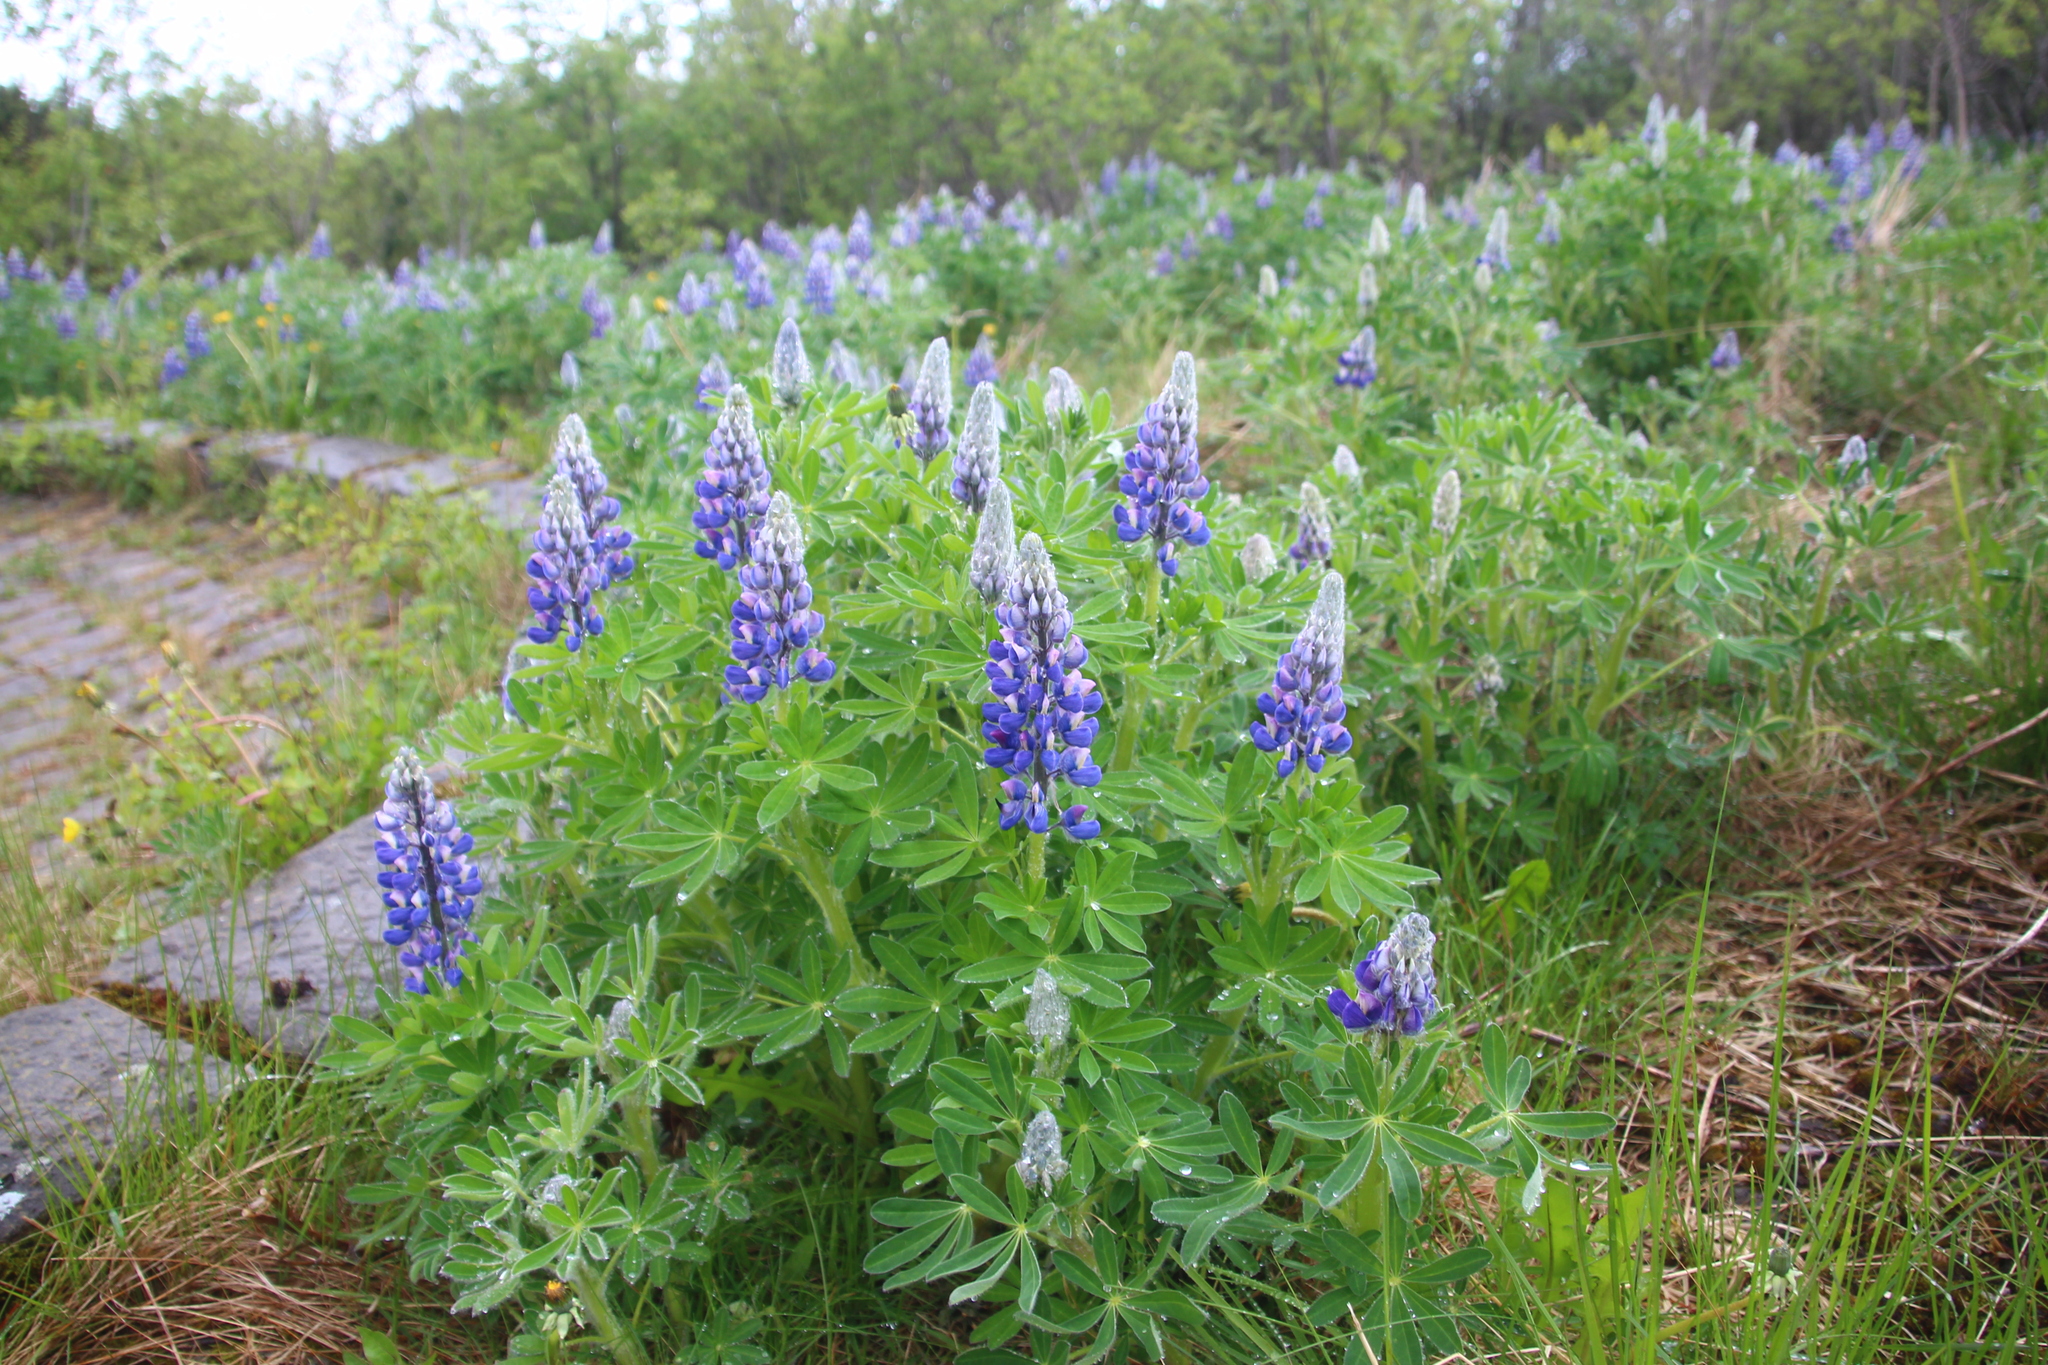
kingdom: Plantae
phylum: Tracheophyta
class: Magnoliopsida
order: Fabales
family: Fabaceae
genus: Lupinus
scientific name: Lupinus nootkatensis
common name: Nootka lupine
